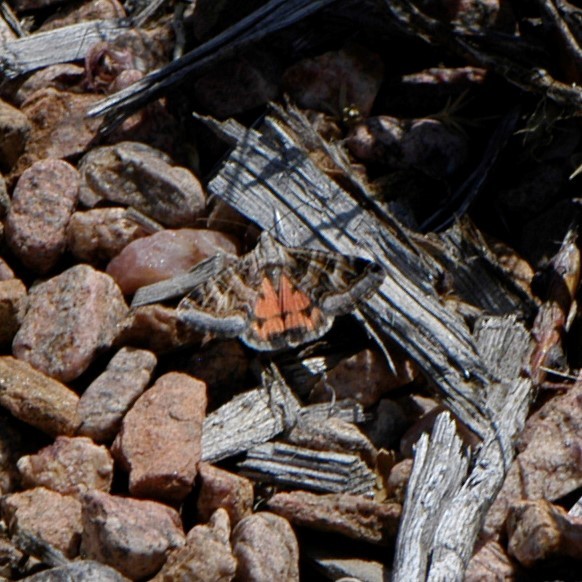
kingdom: Animalia
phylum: Arthropoda
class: Insecta
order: Lepidoptera
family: Erebidae
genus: Drasteria
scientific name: Drasteria mirifica
